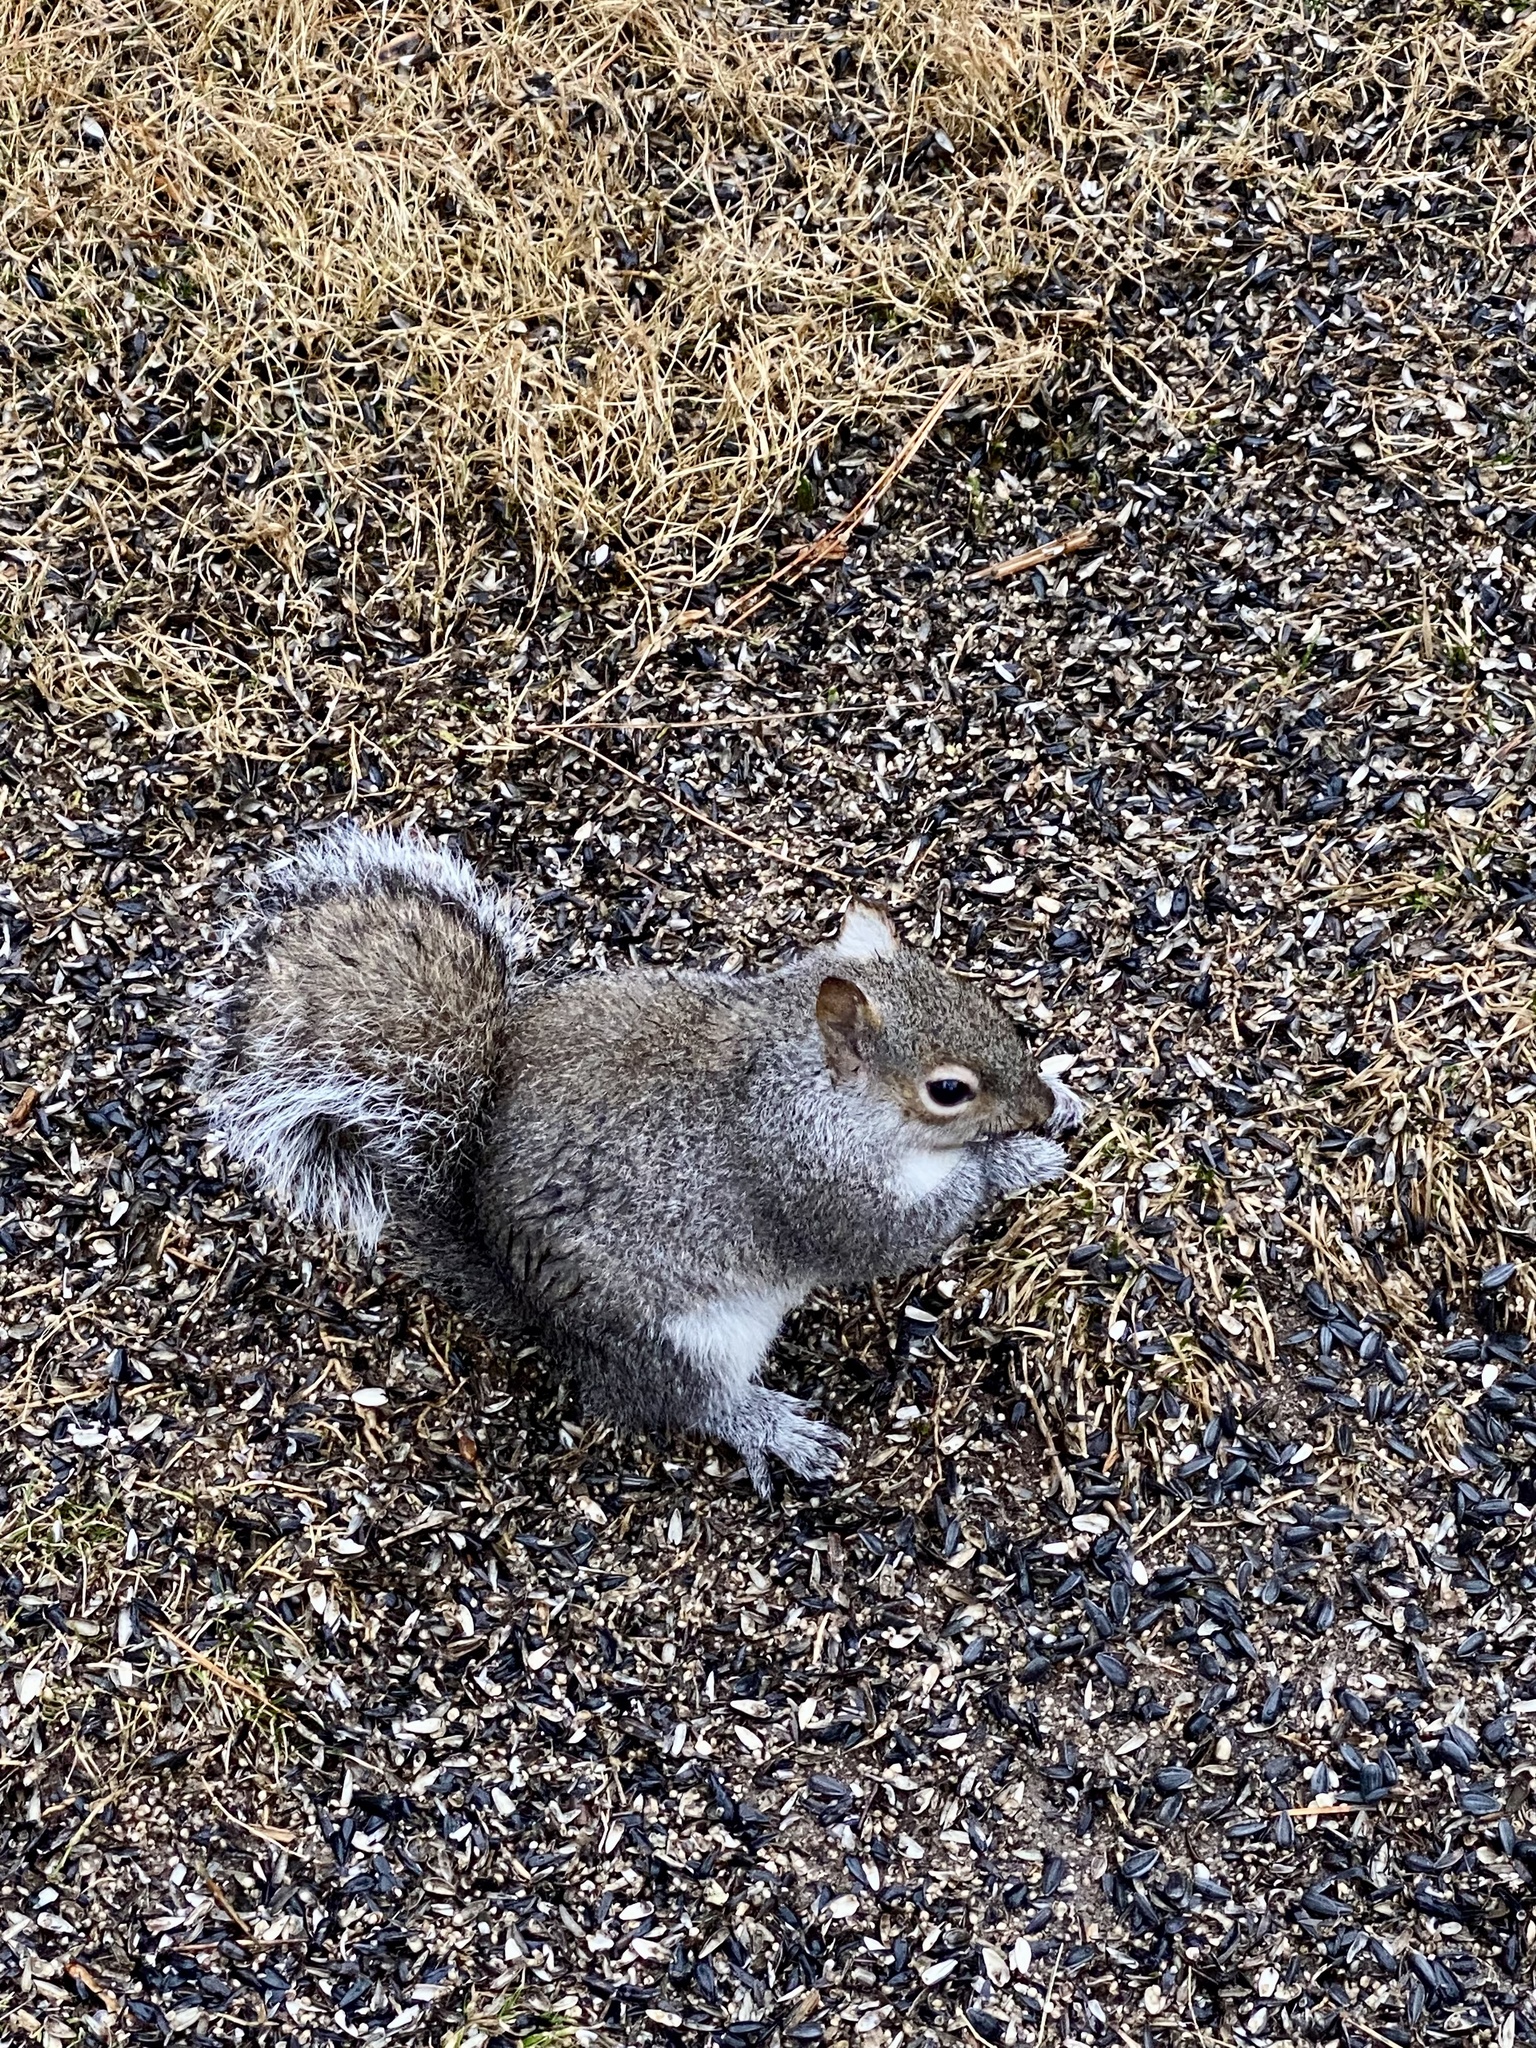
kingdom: Animalia
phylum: Chordata
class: Mammalia
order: Rodentia
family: Sciuridae
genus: Sciurus
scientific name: Sciurus carolinensis
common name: Eastern gray squirrel
